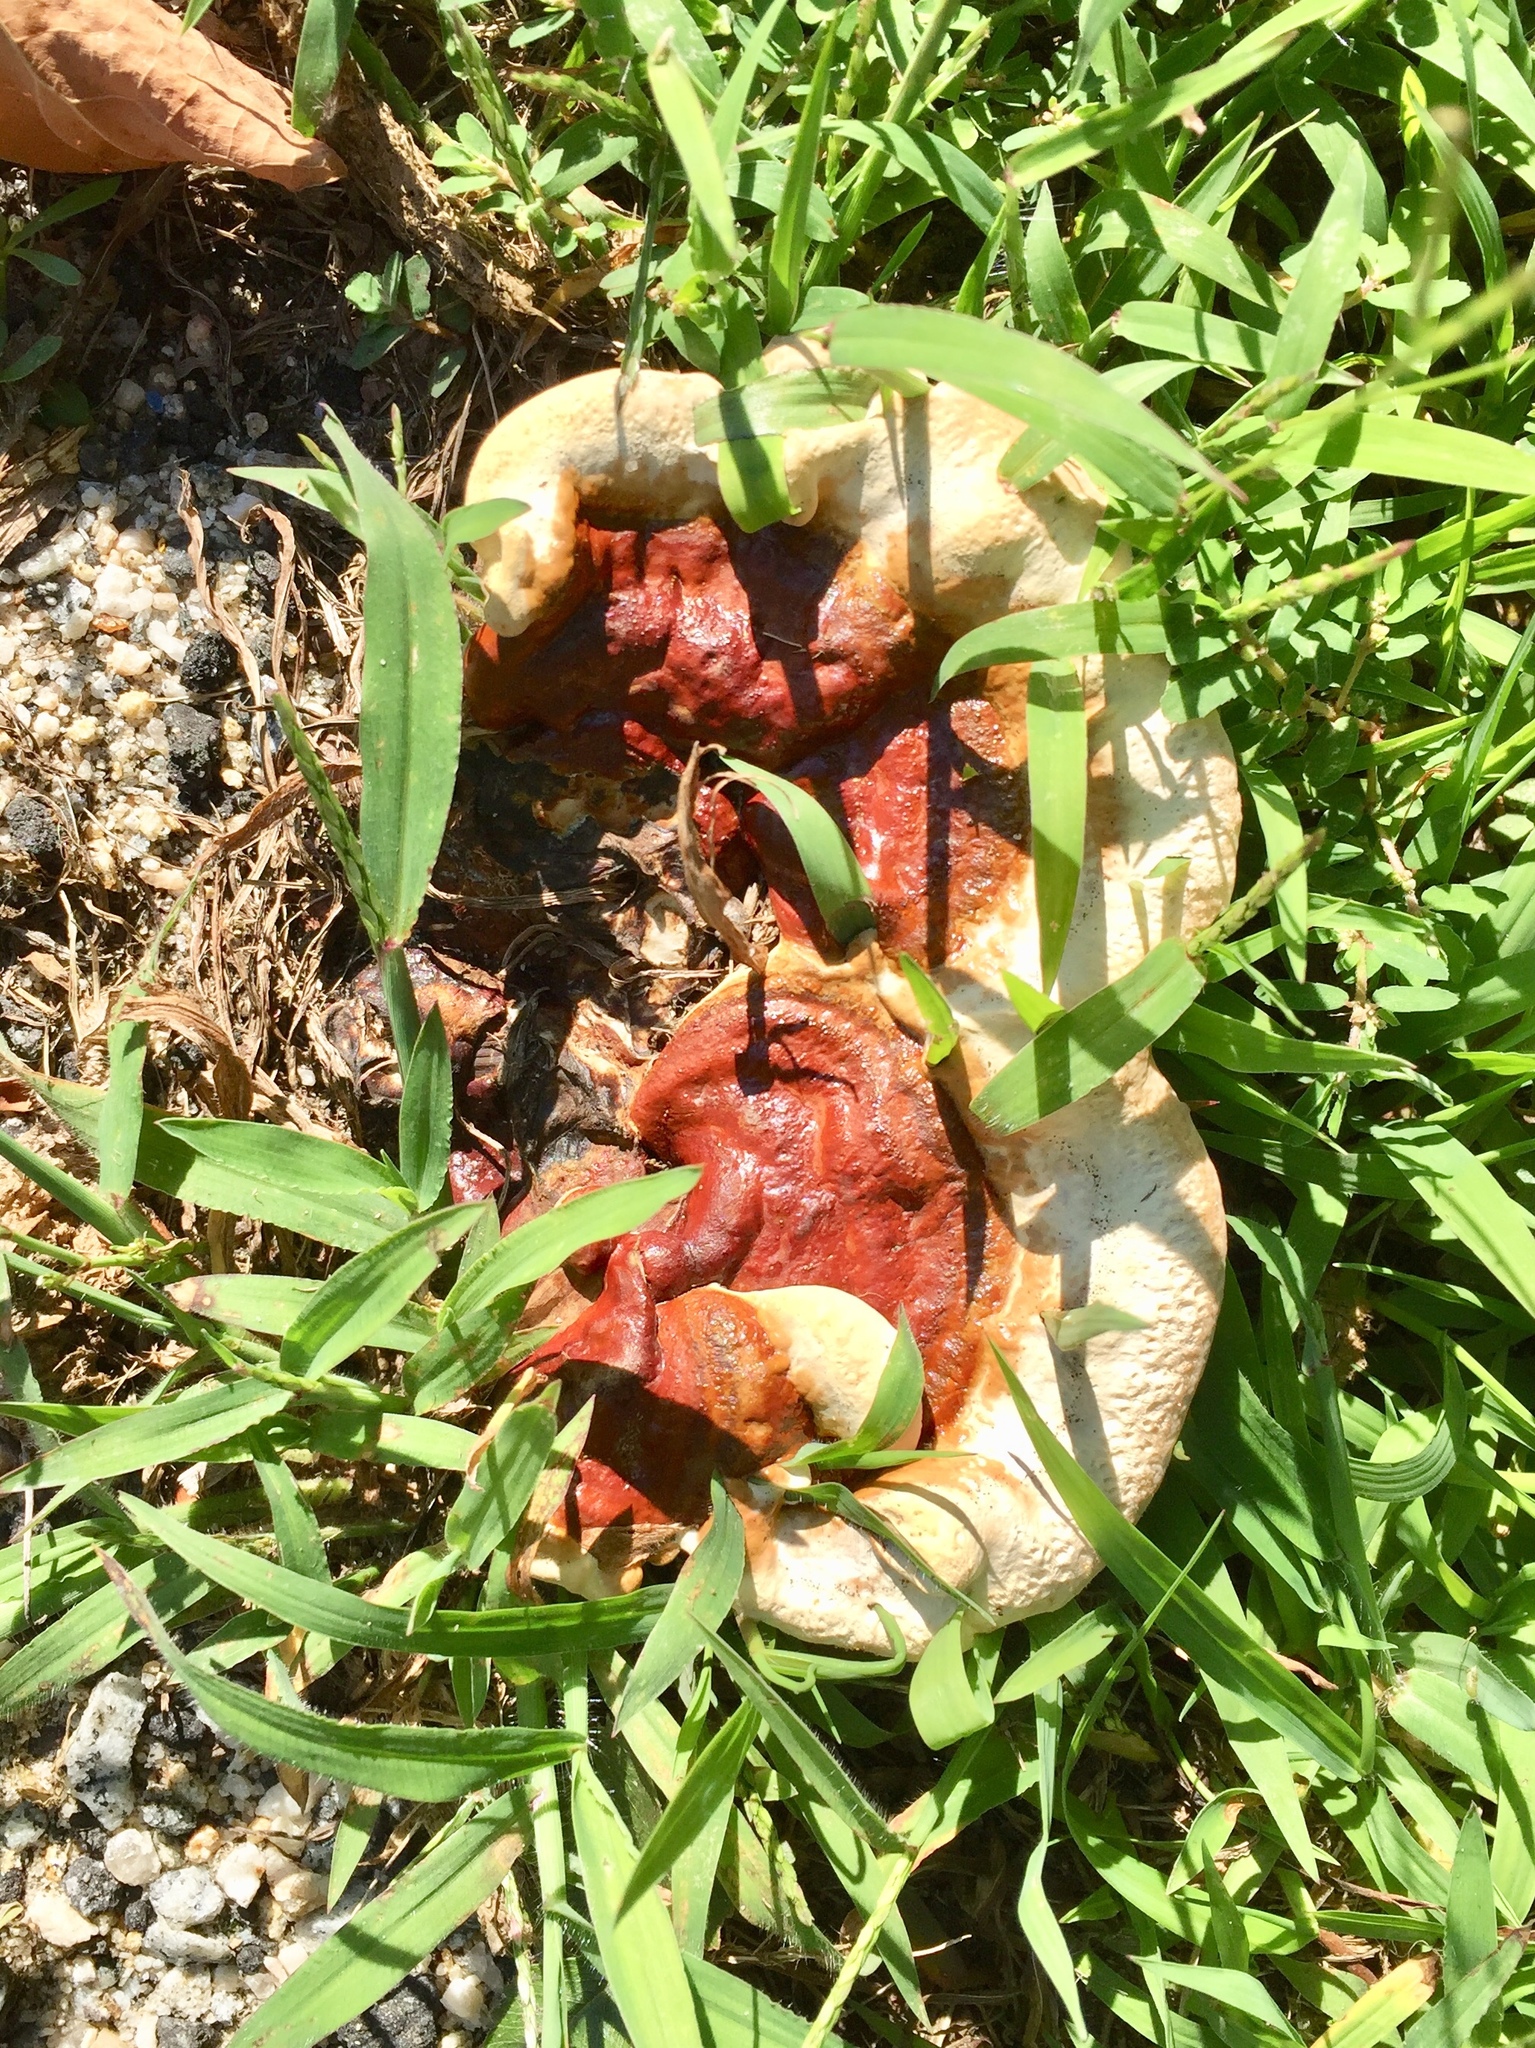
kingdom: Fungi
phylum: Basidiomycota
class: Agaricomycetes
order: Polyporales
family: Polyporaceae
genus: Ganoderma
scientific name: Ganoderma resinaceum
